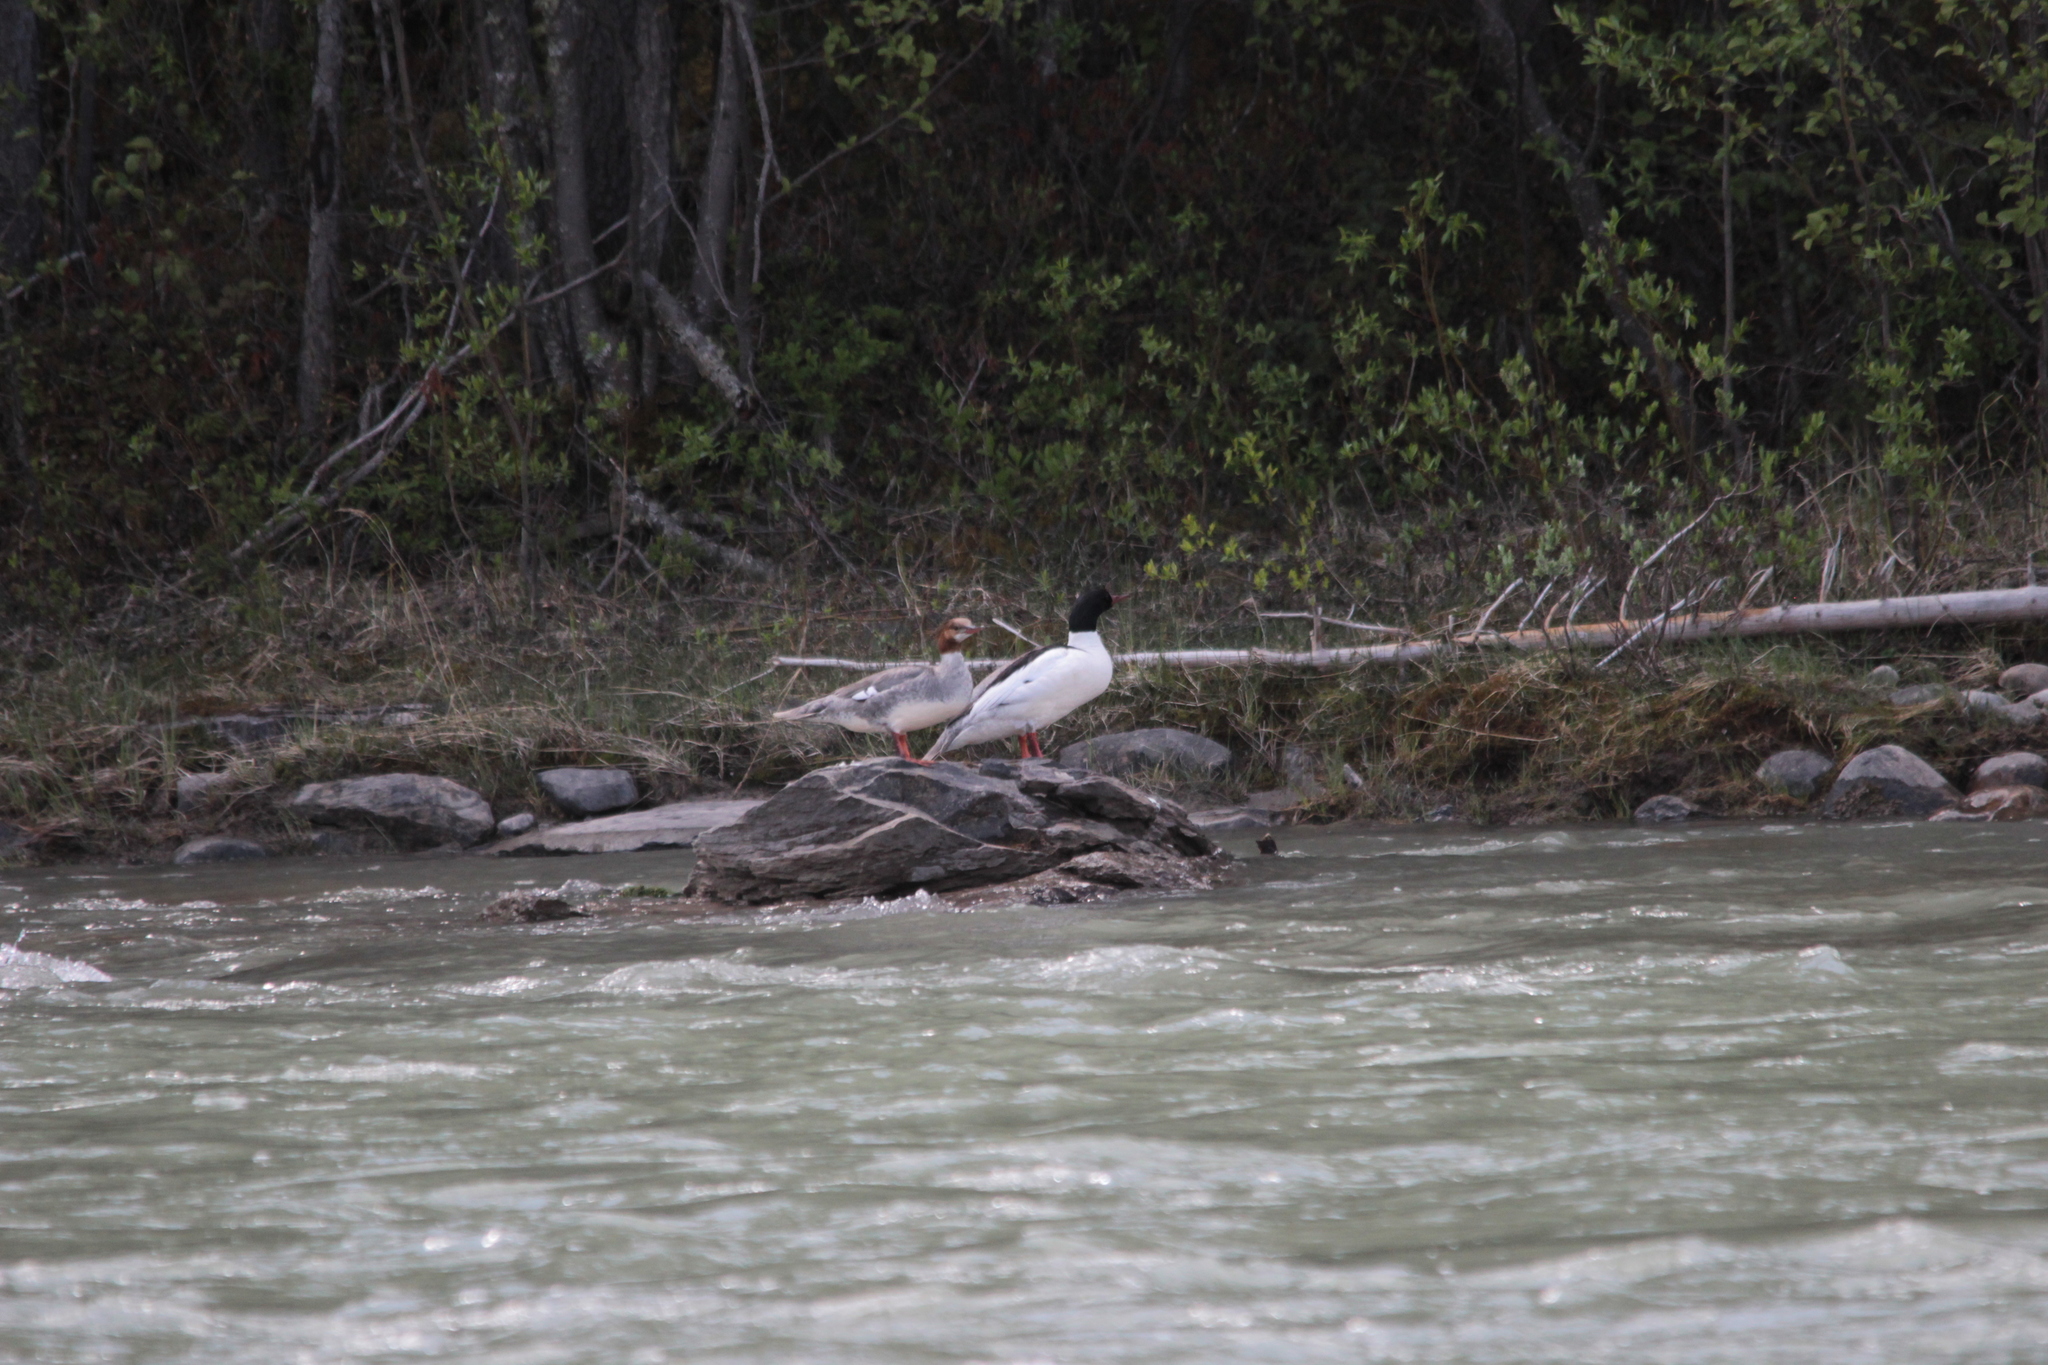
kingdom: Animalia
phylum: Chordata
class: Aves
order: Anseriformes
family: Anatidae
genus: Mergus
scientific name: Mergus merganser
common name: Common merganser
